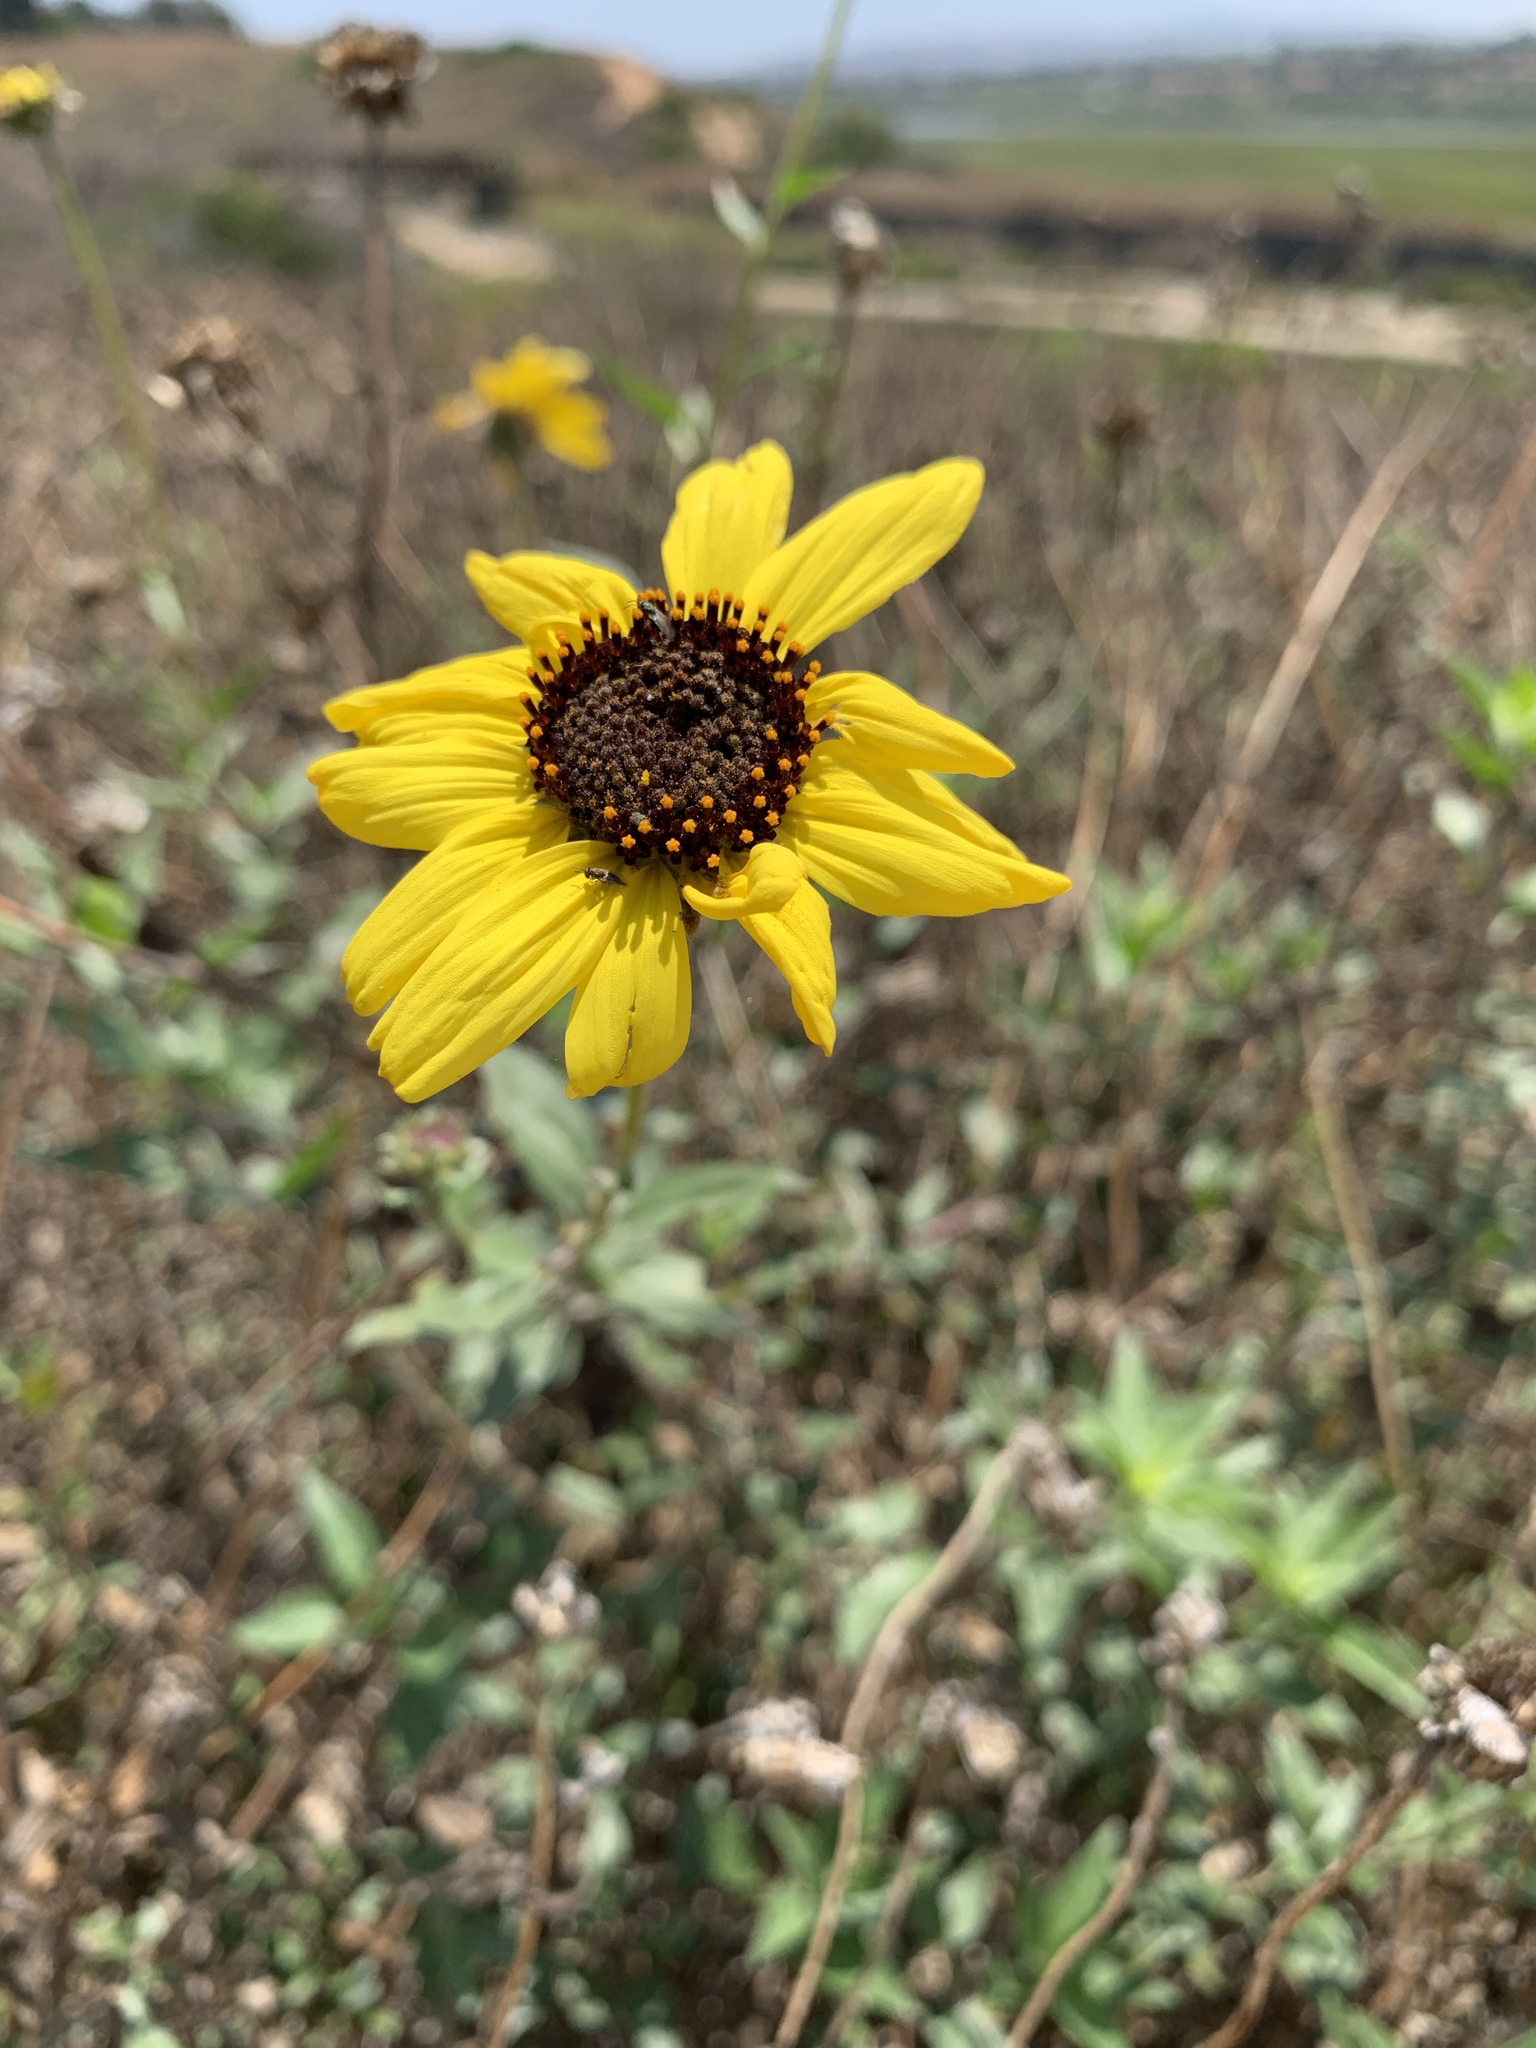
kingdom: Plantae
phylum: Tracheophyta
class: Magnoliopsida
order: Asterales
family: Asteraceae
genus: Encelia
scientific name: Encelia californica
